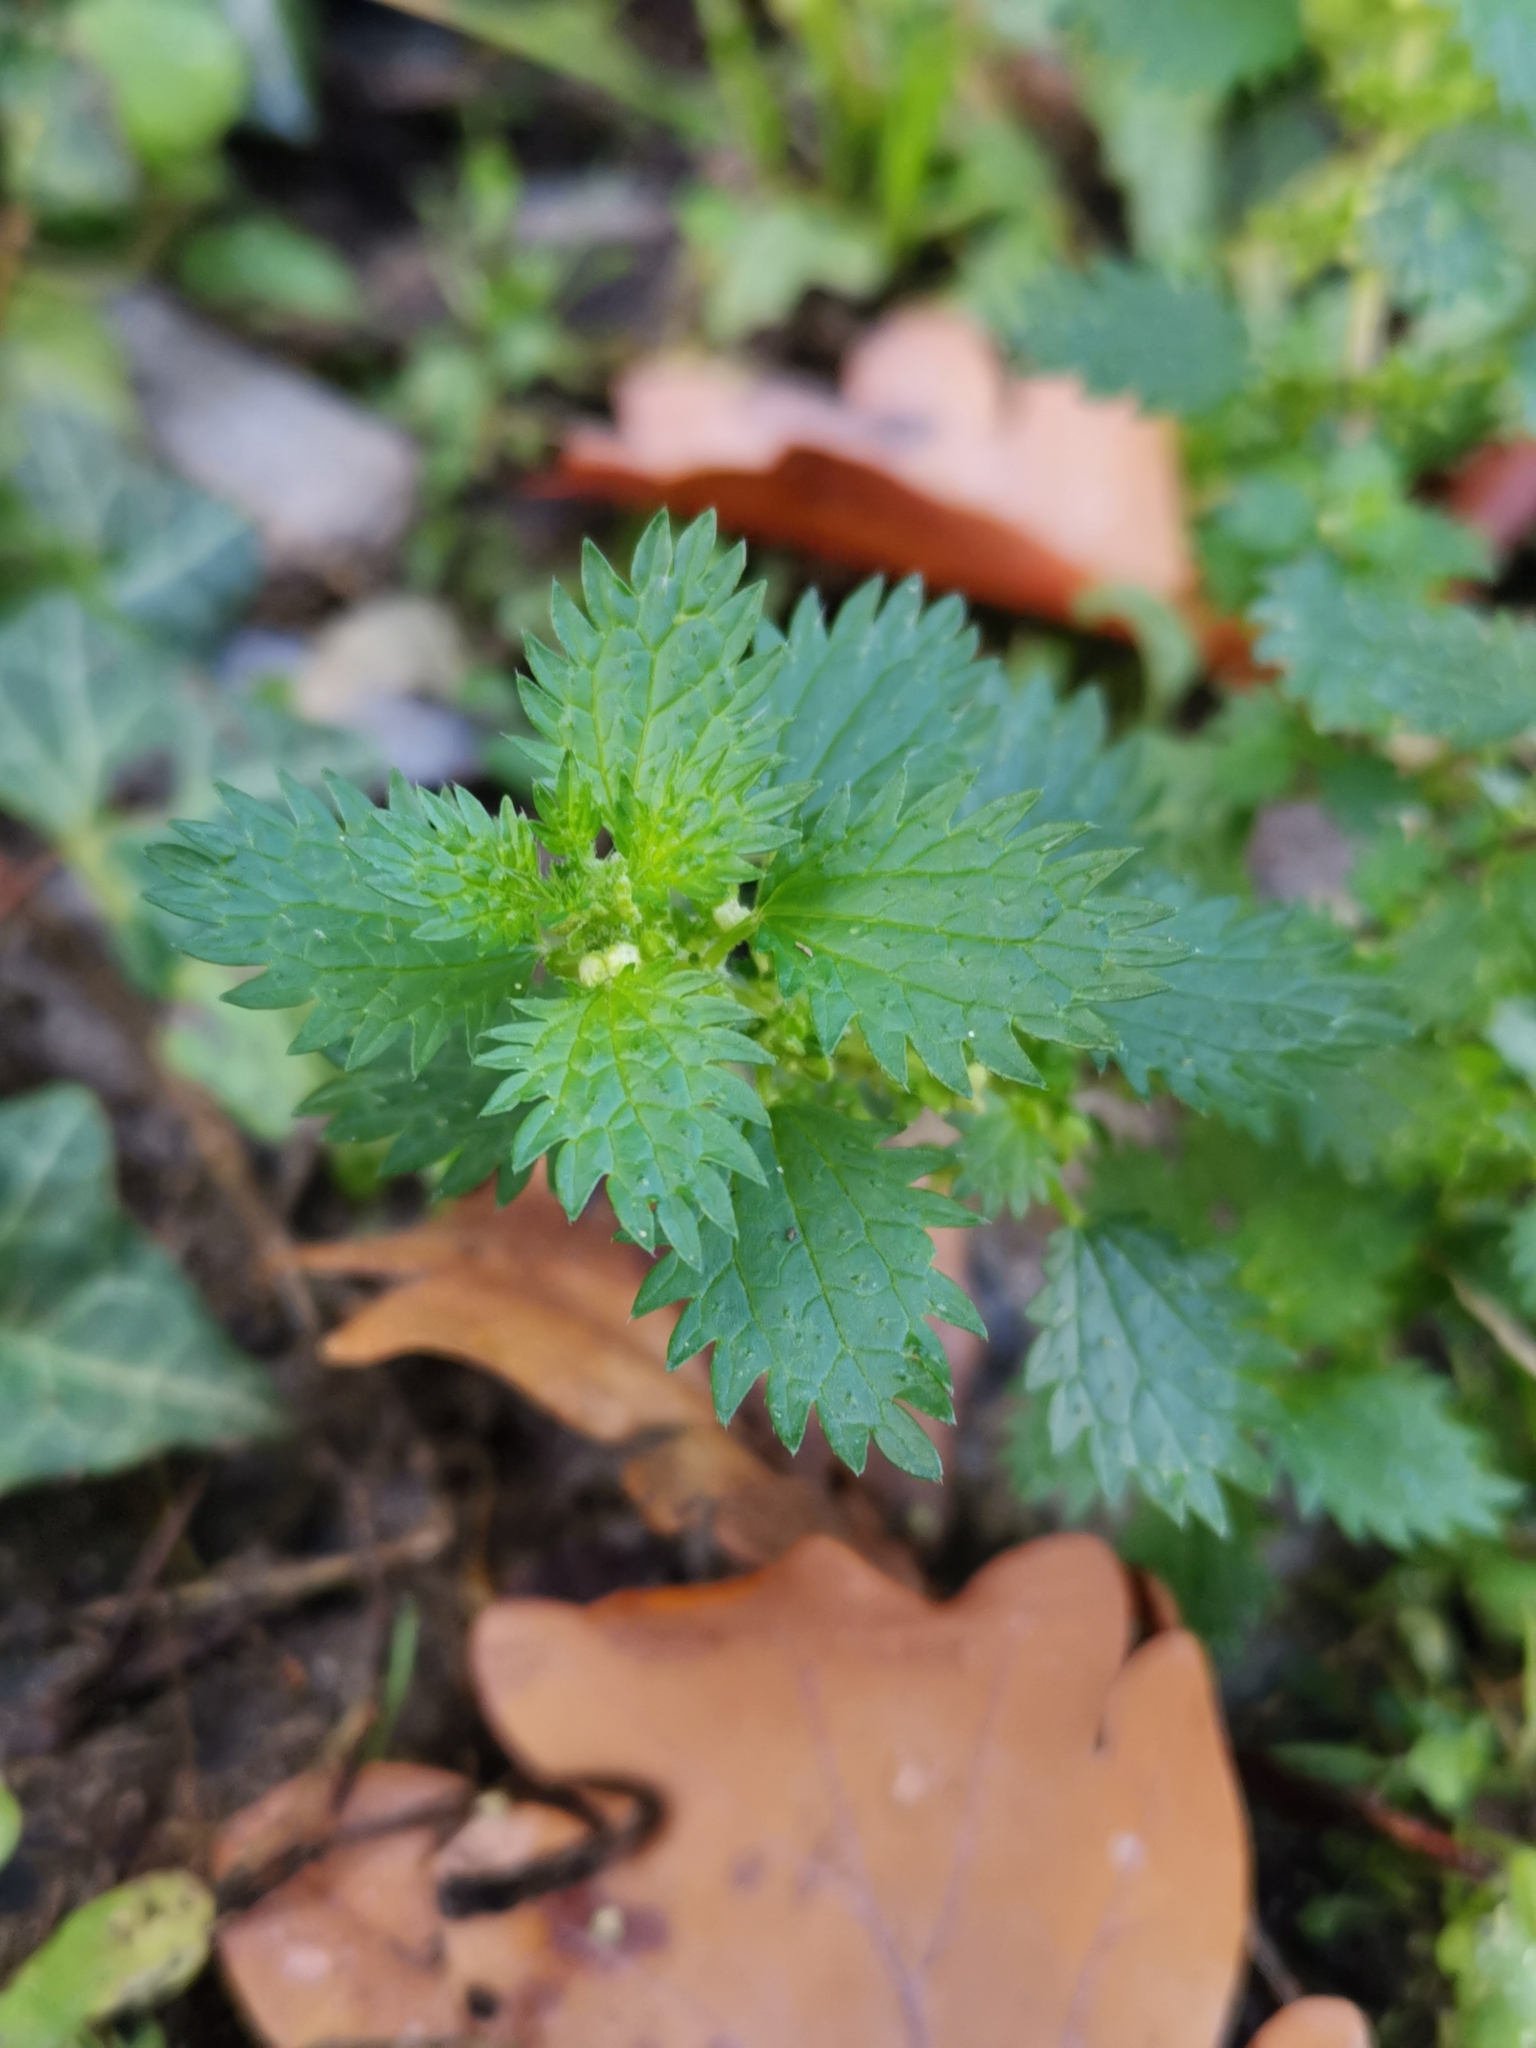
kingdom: Plantae
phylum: Tracheophyta
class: Magnoliopsida
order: Rosales
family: Urticaceae
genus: Urtica
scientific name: Urtica urens
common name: Dwarf nettle
